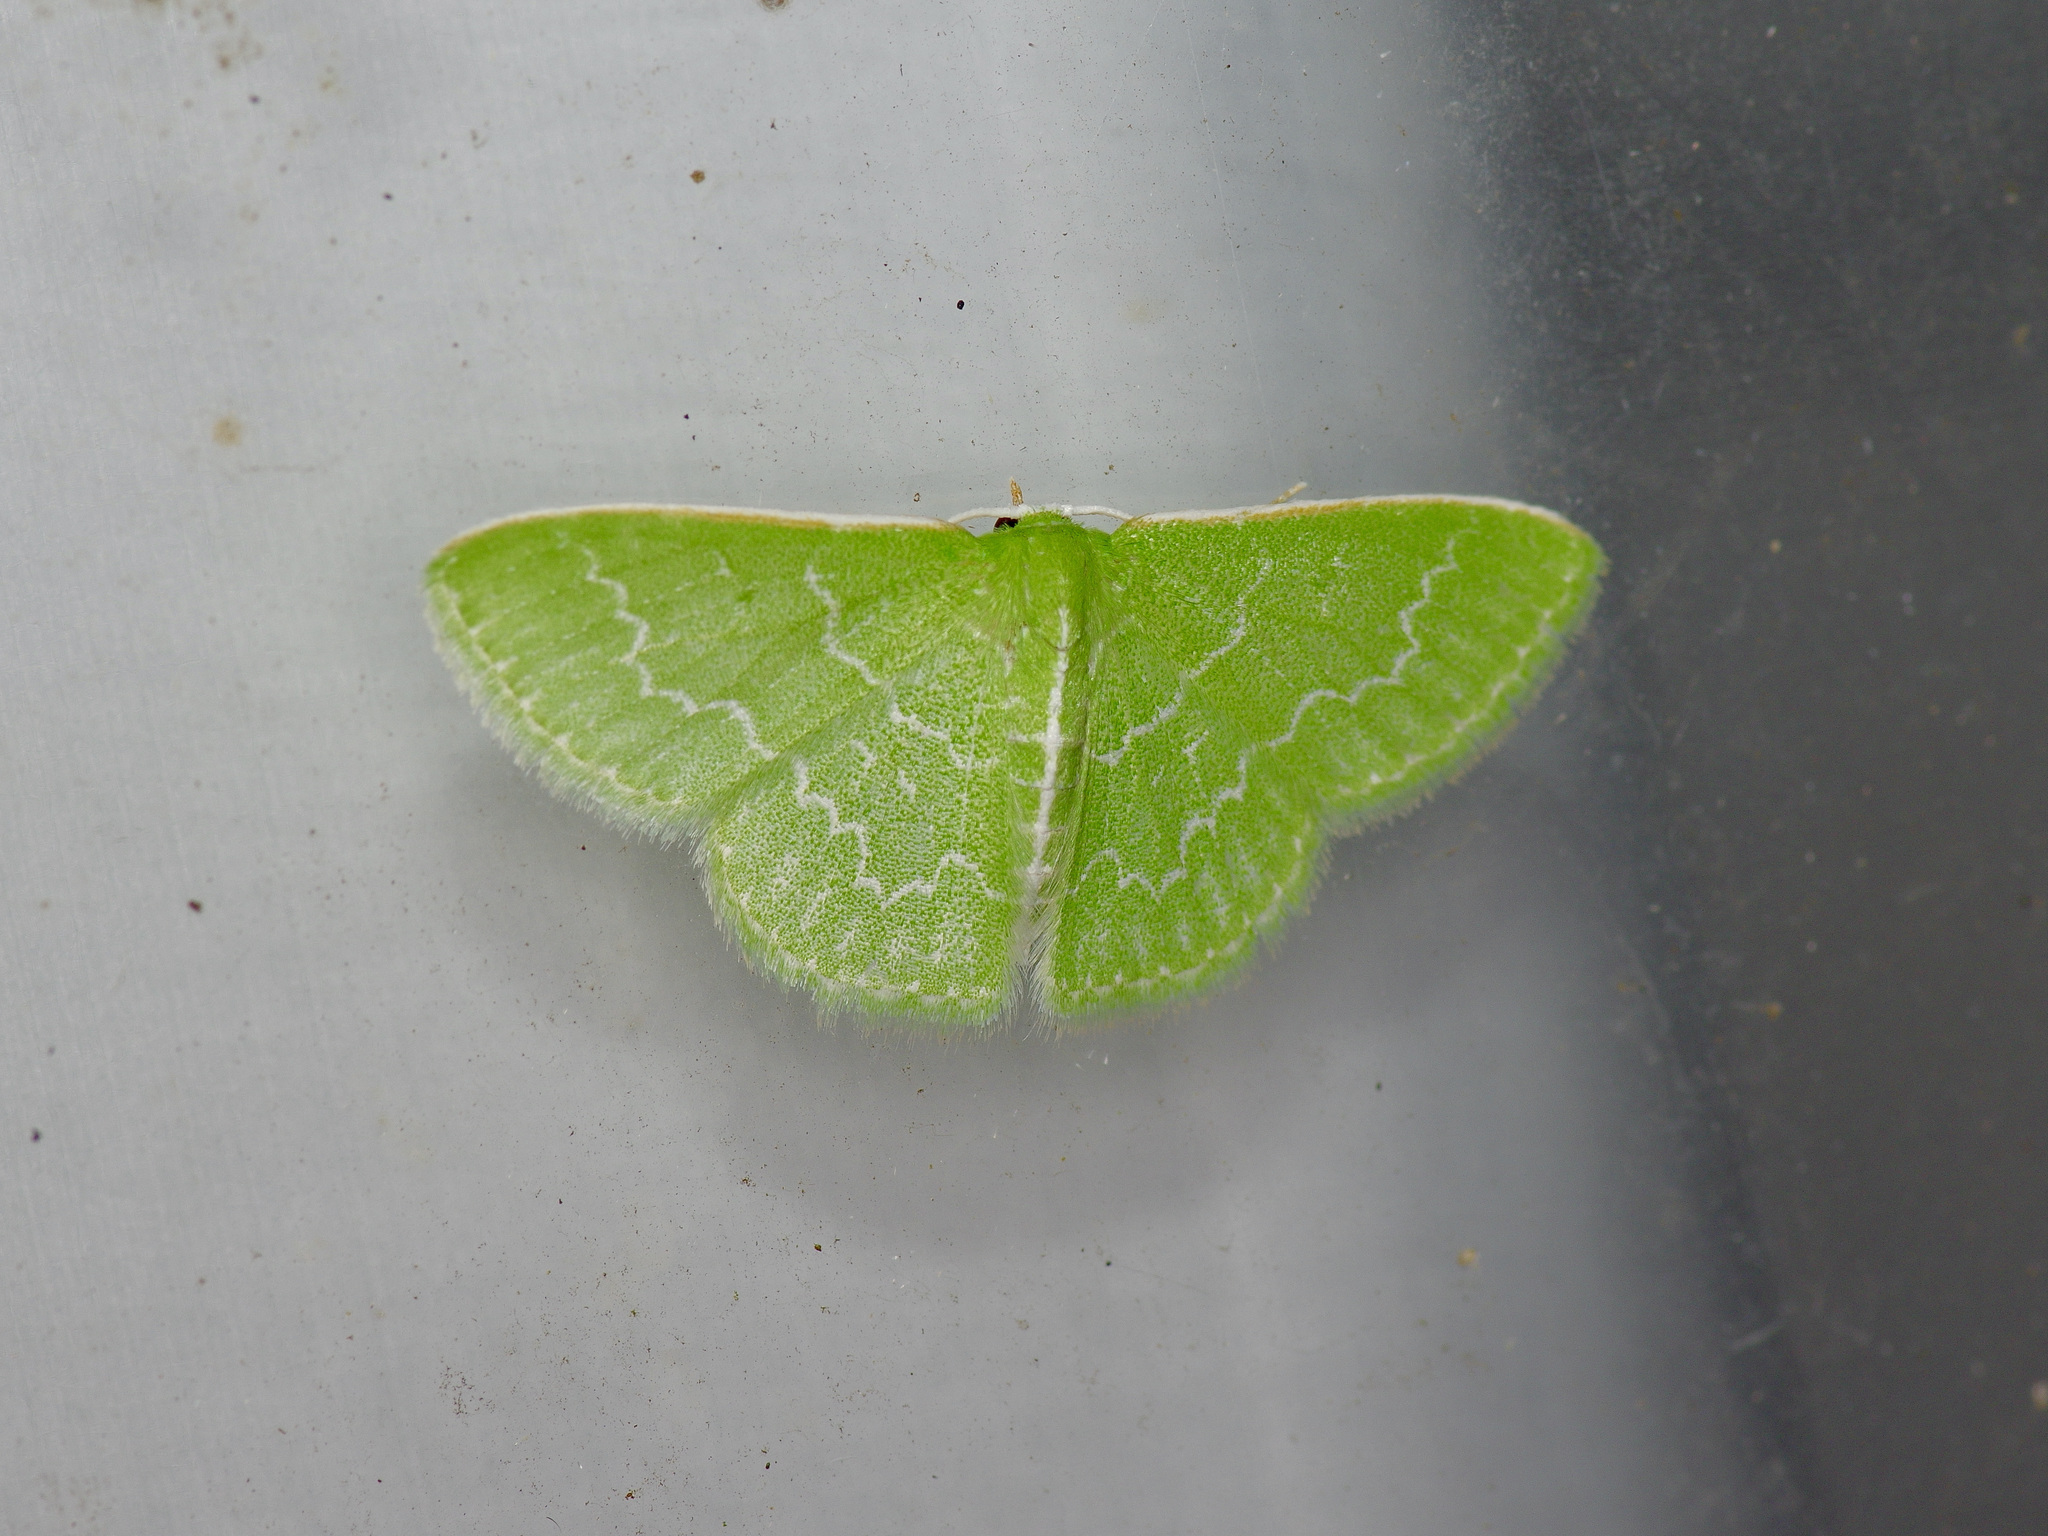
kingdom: Animalia
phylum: Arthropoda
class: Insecta
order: Lepidoptera
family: Geometridae
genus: Synchlora
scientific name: Synchlora frondaria
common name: Southern emerald
